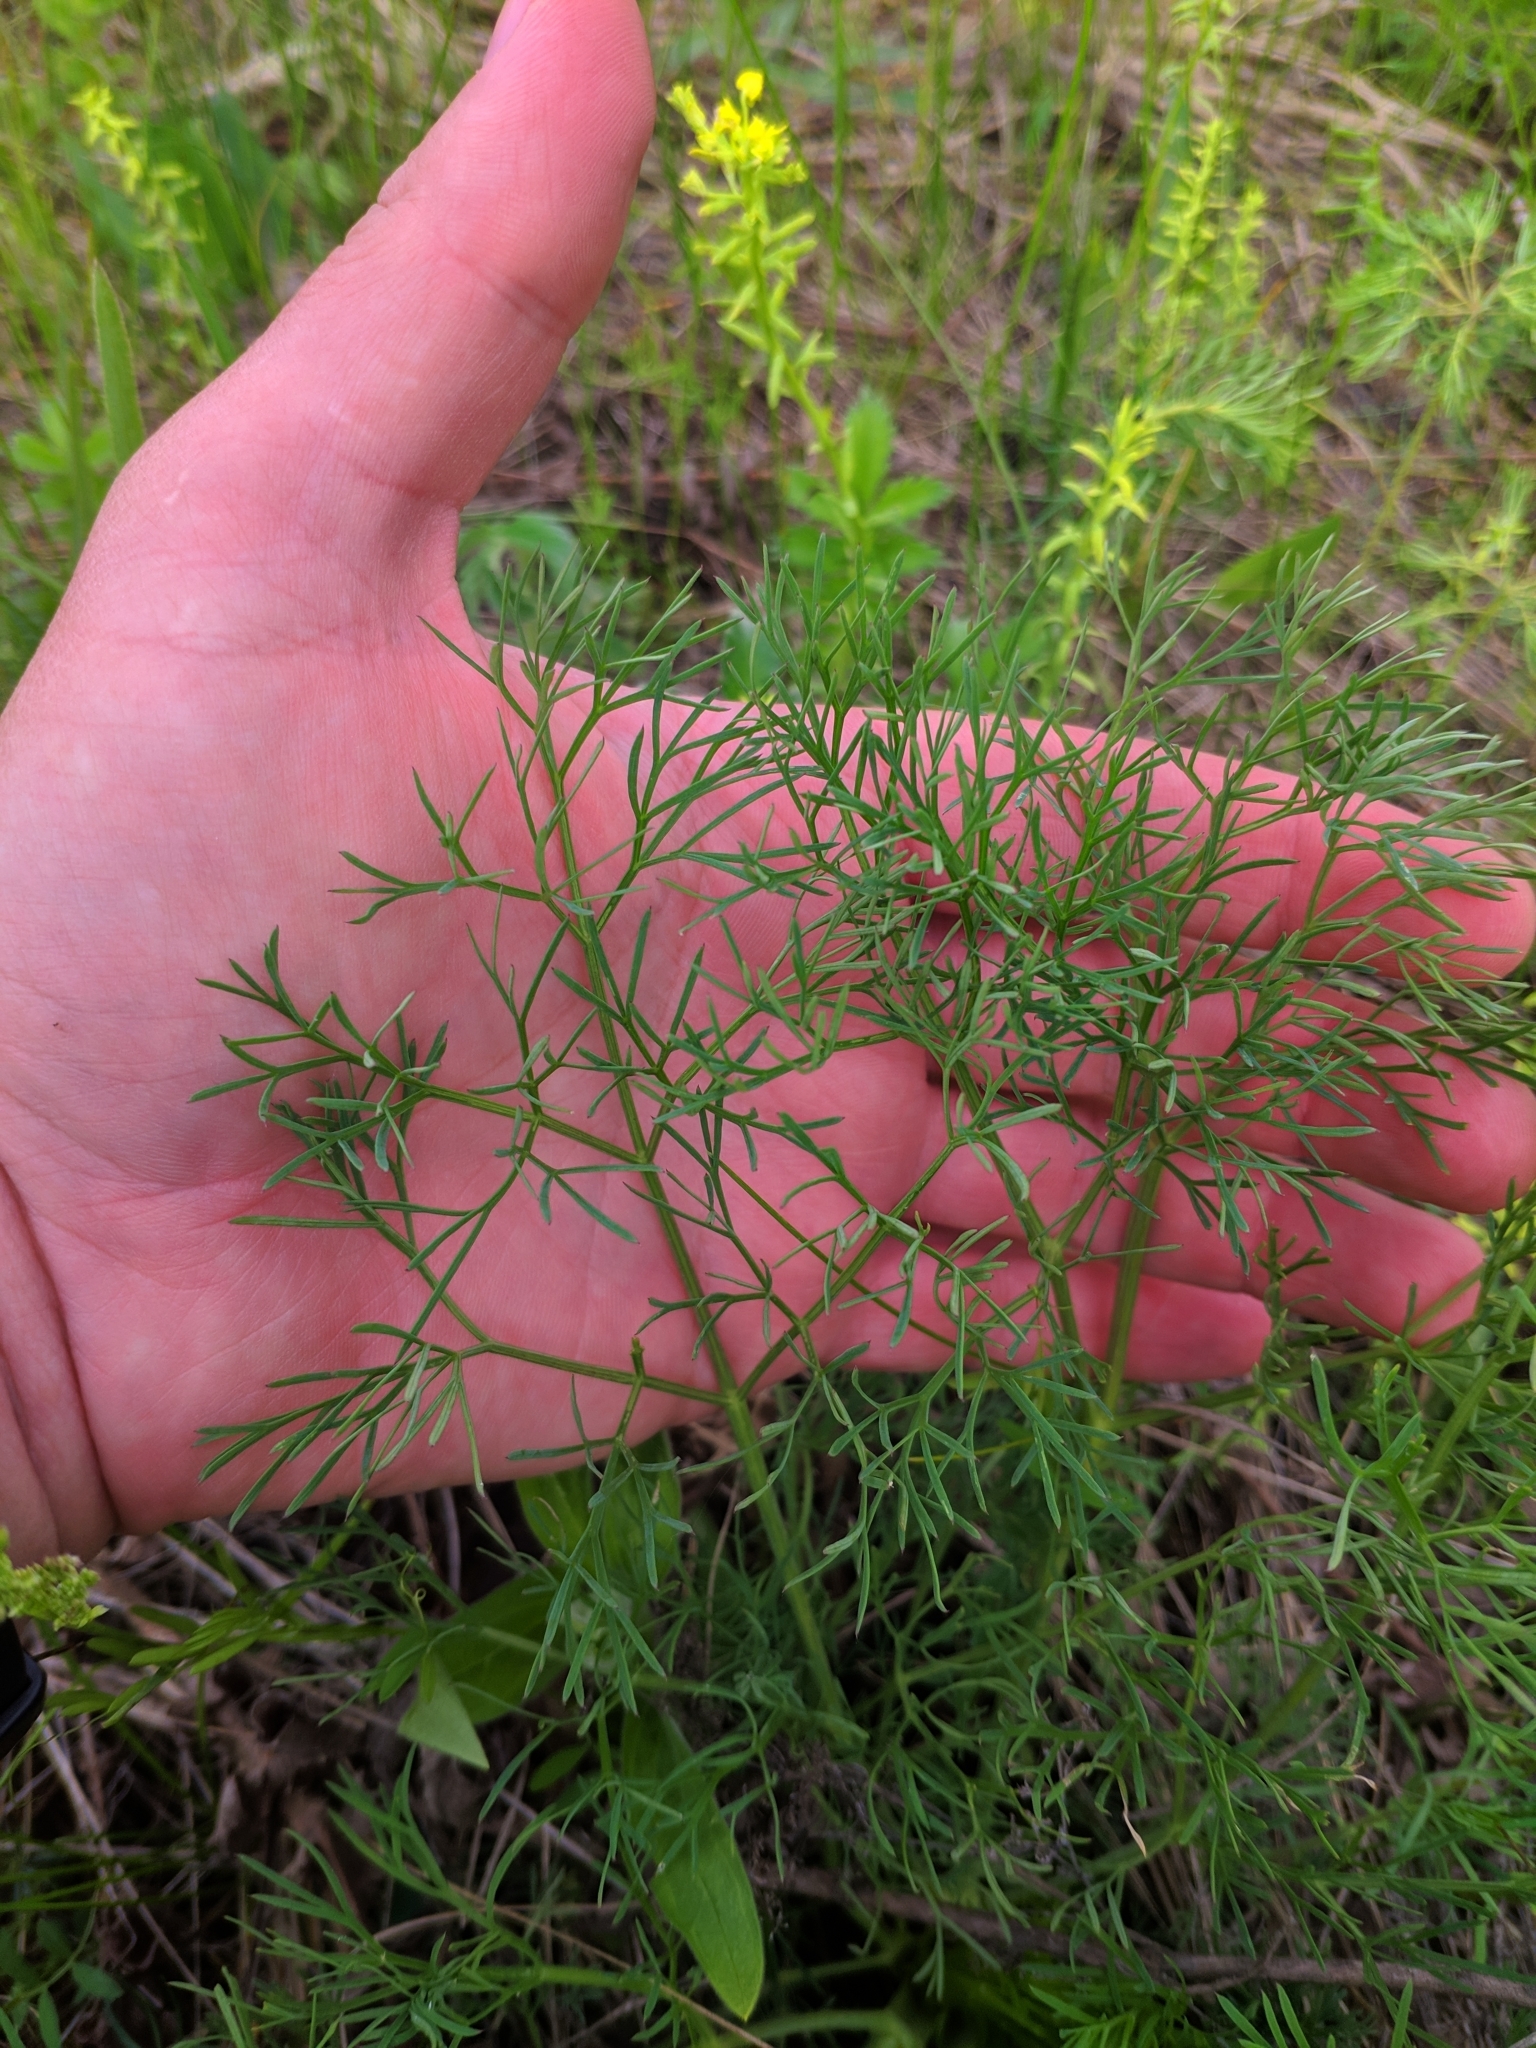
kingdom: Plantae
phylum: Tracheophyta
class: Magnoliopsida
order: Apiales
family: Apiaceae
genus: Seseli
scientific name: Seseli arenarium
